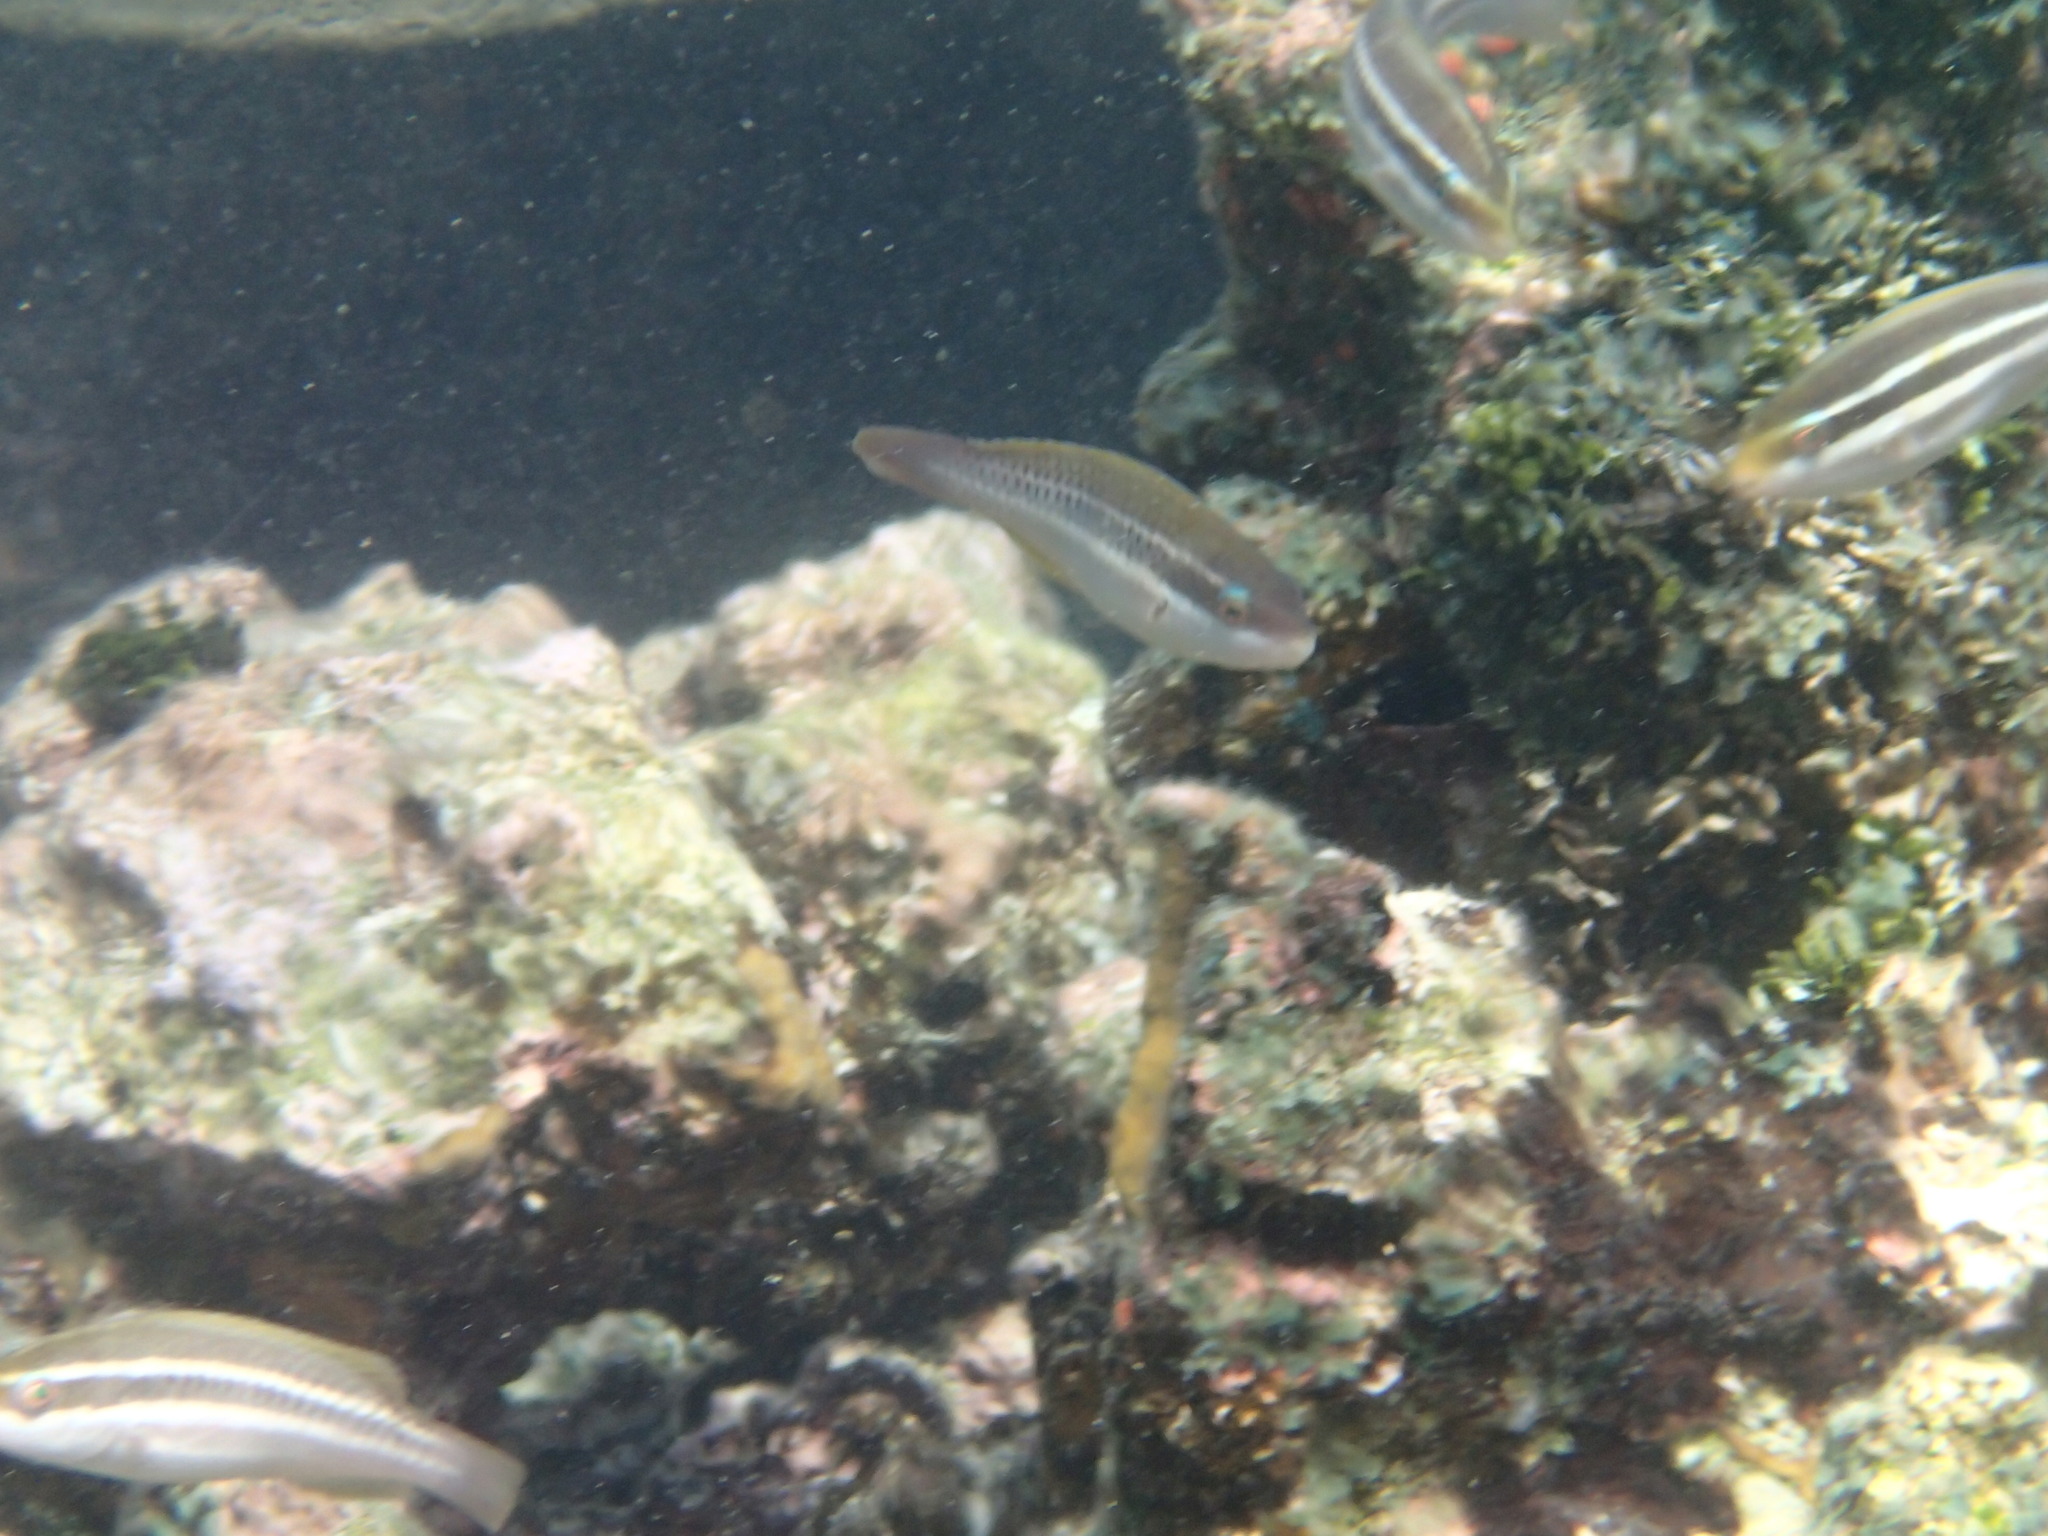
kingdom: Animalia
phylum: Chordata
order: Perciformes
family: Scaridae
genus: Scarus
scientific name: Scarus iseri
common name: Striped parrotfish
